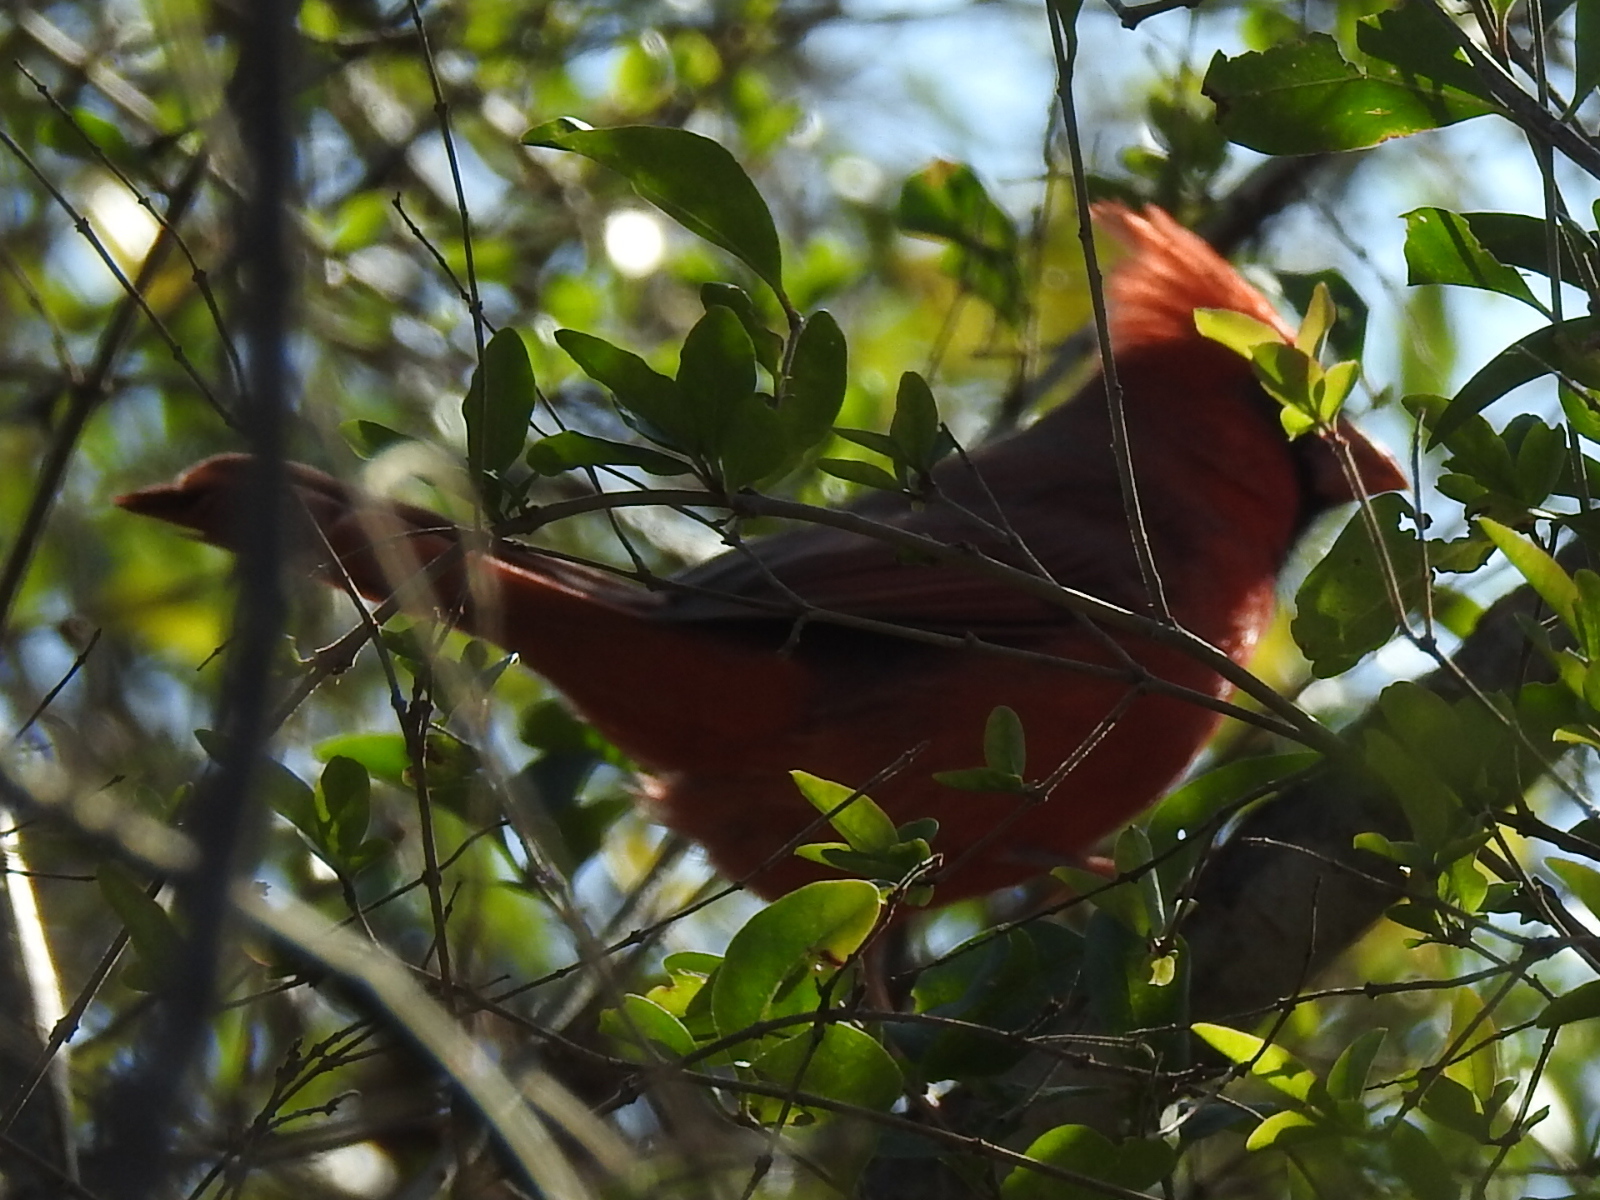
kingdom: Animalia
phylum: Chordata
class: Aves
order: Passeriformes
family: Cardinalidae
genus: Cardinalis
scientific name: Cardinalis cardinalis
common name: Northern cardinal
